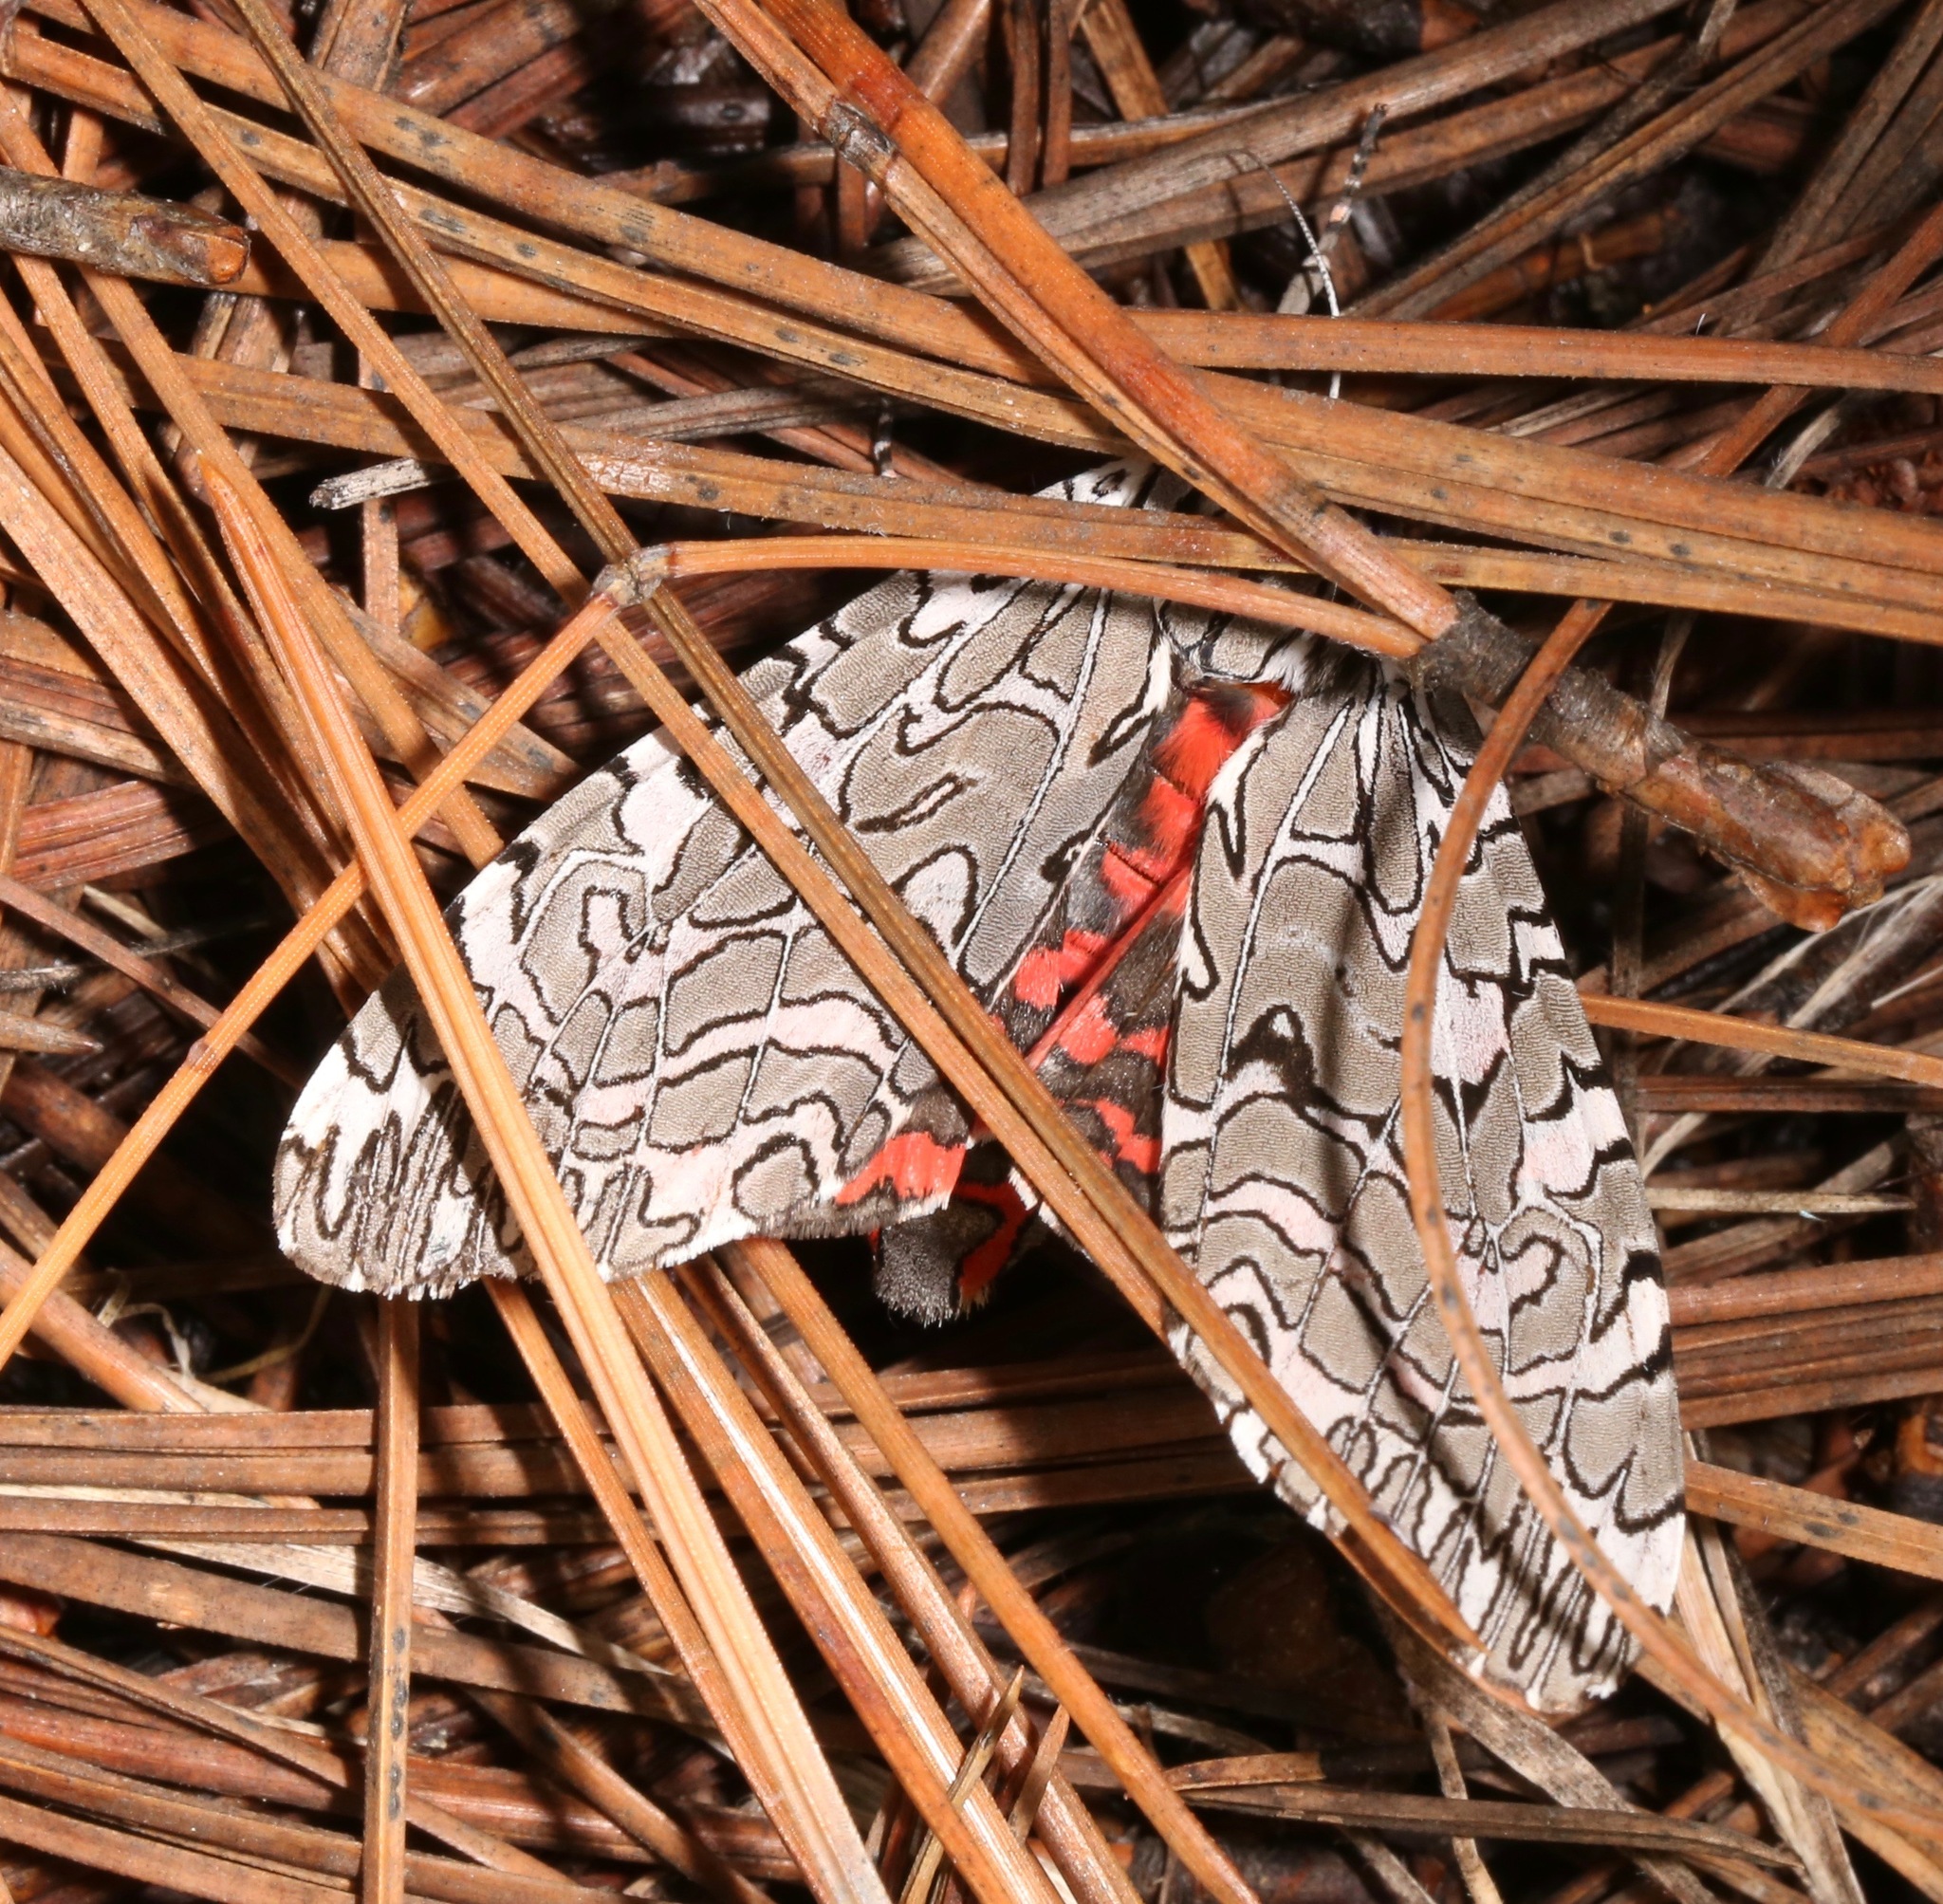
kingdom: Animalia
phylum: Arthropoda
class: Insecta
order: Lepidoptera
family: Erebidae
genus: Arachnis
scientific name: Arachnis picta
